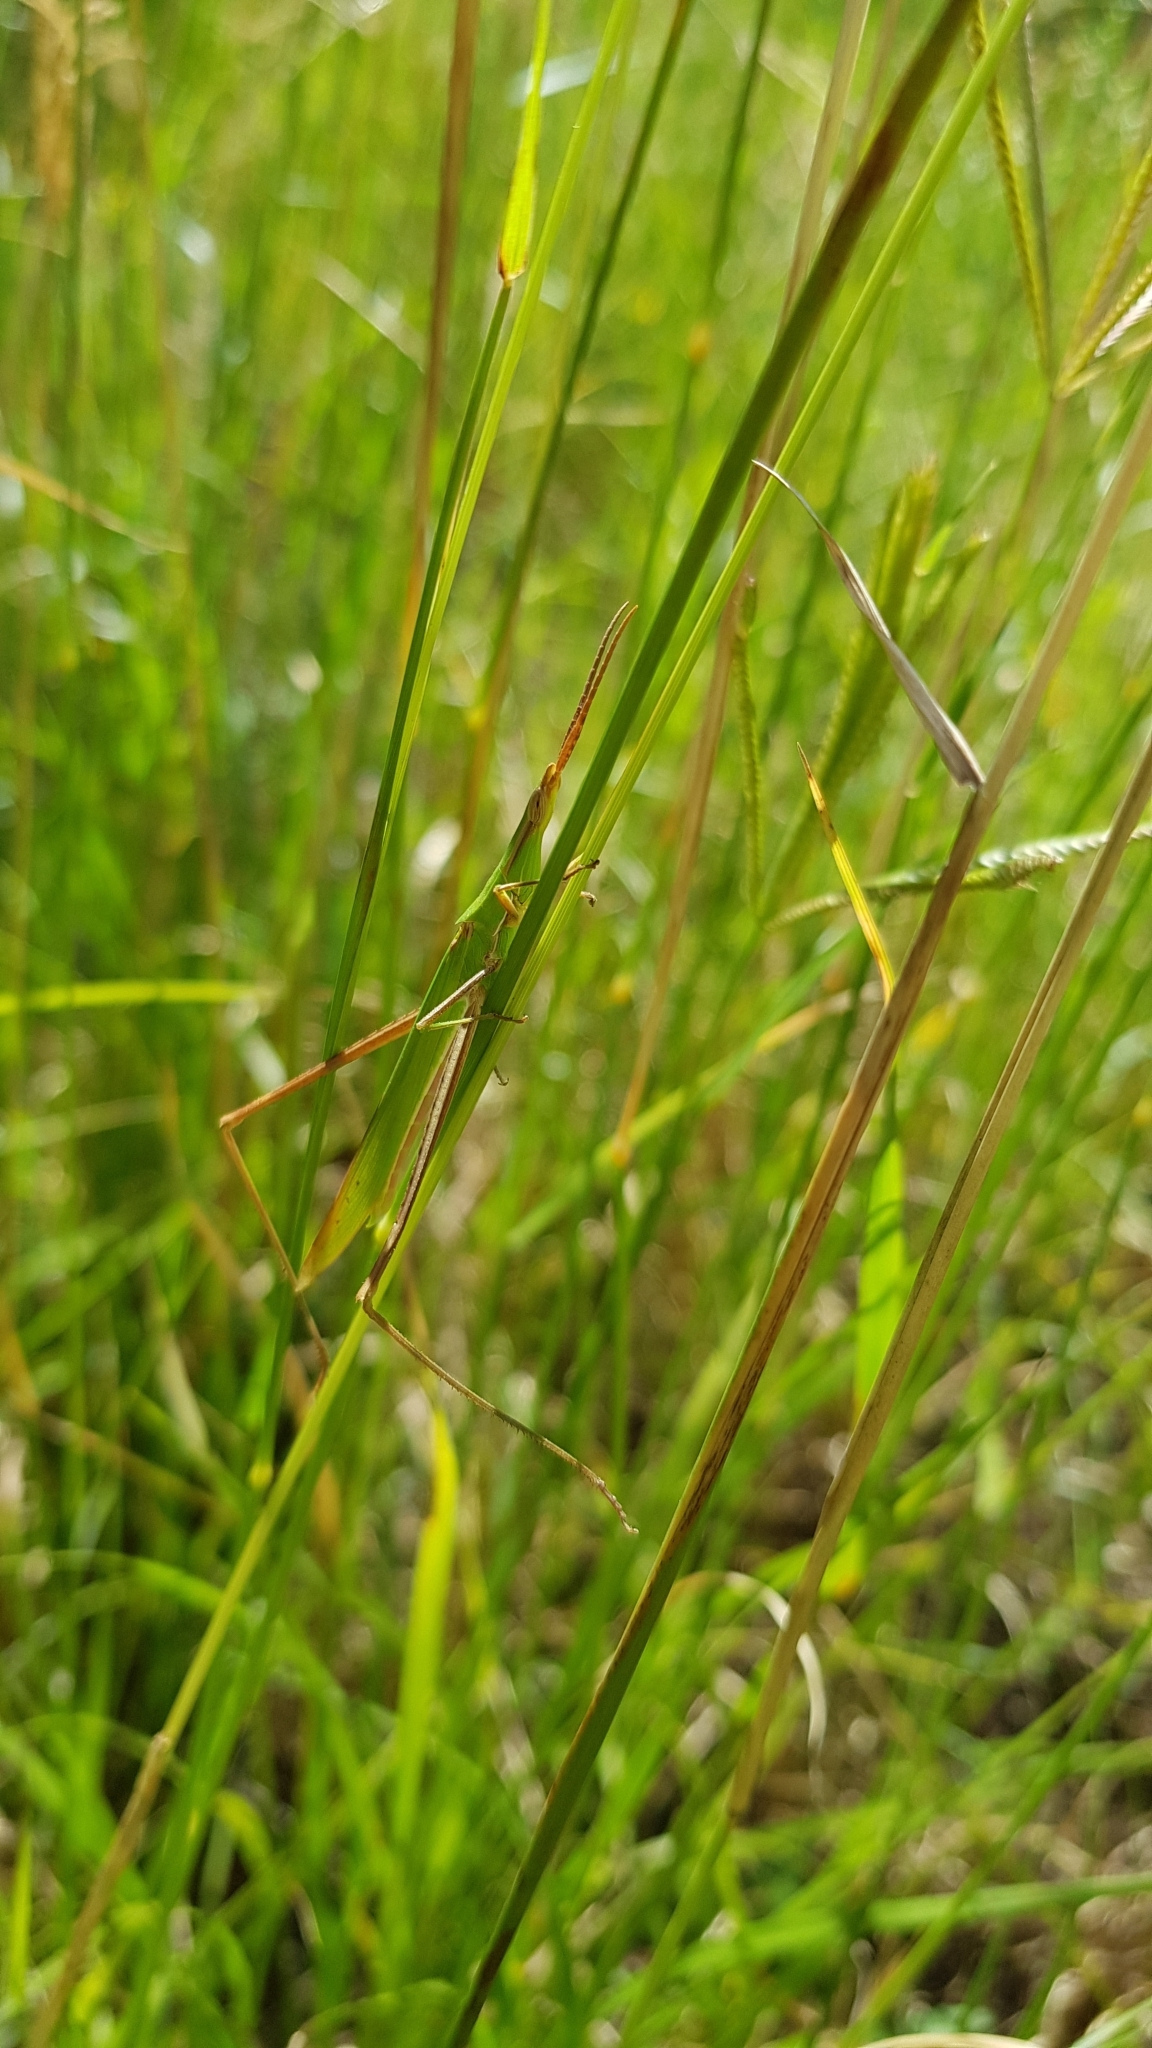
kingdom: Animalia
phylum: Arthropoda
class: Insecta
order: Orthoptera
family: Acrididae
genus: Acrida
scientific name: Acrida conica
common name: Giant green slantface
